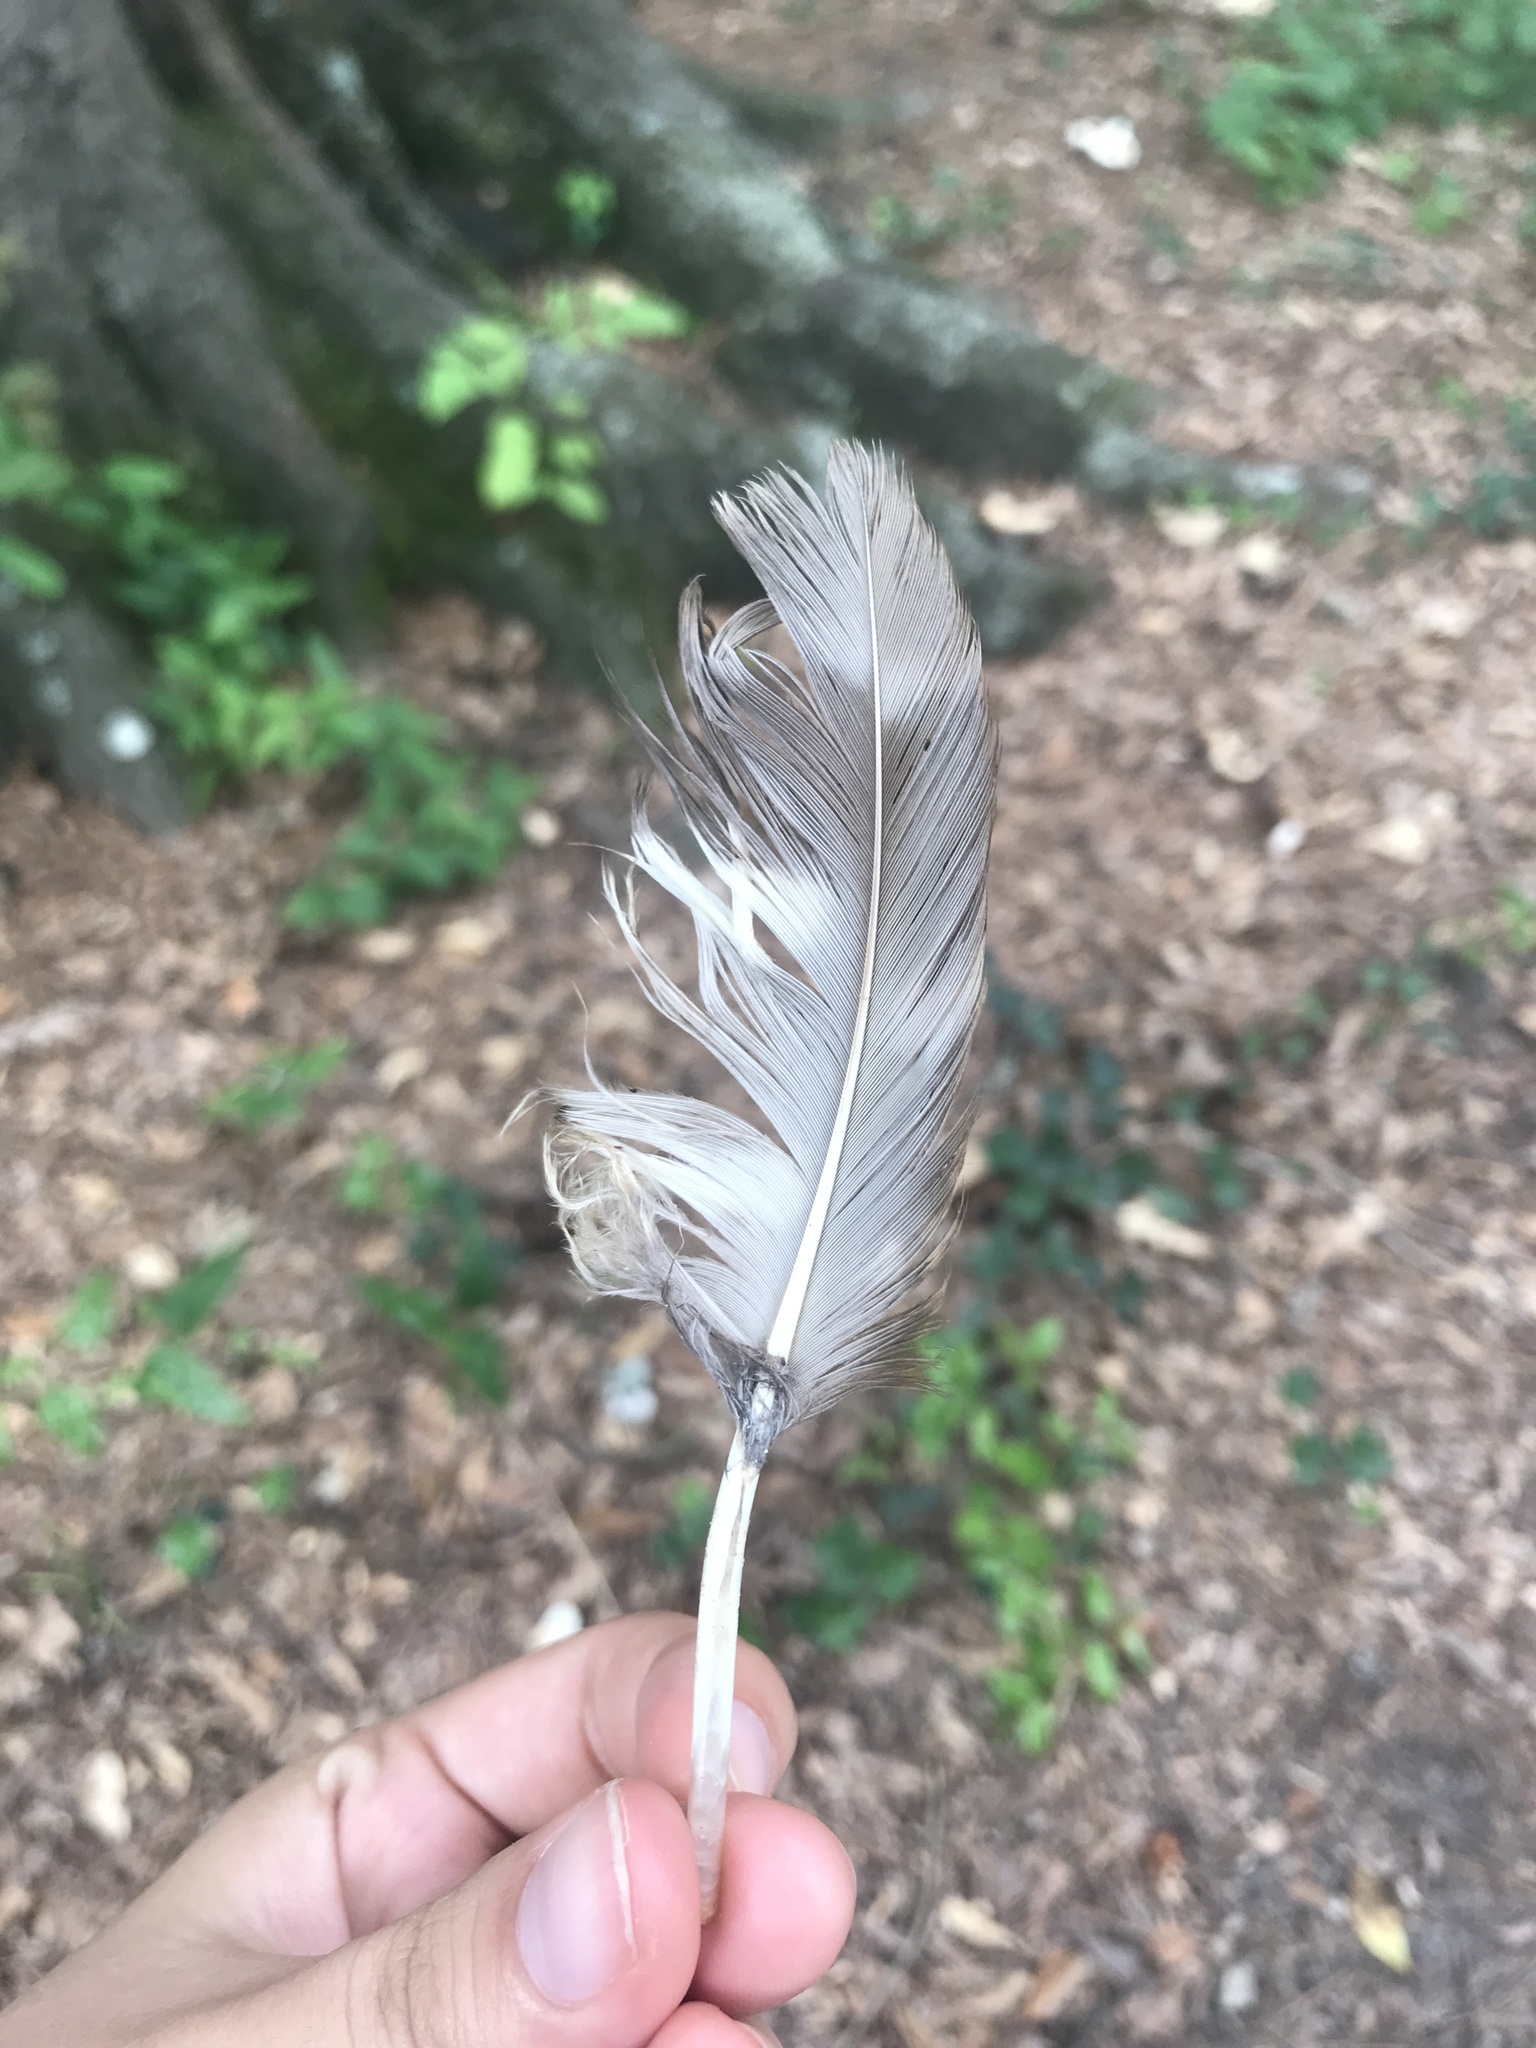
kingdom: Animalia
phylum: Chordata
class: Aves
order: Strigiformes
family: Strigidae
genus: Strix
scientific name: Strix varia
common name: Barred owl
